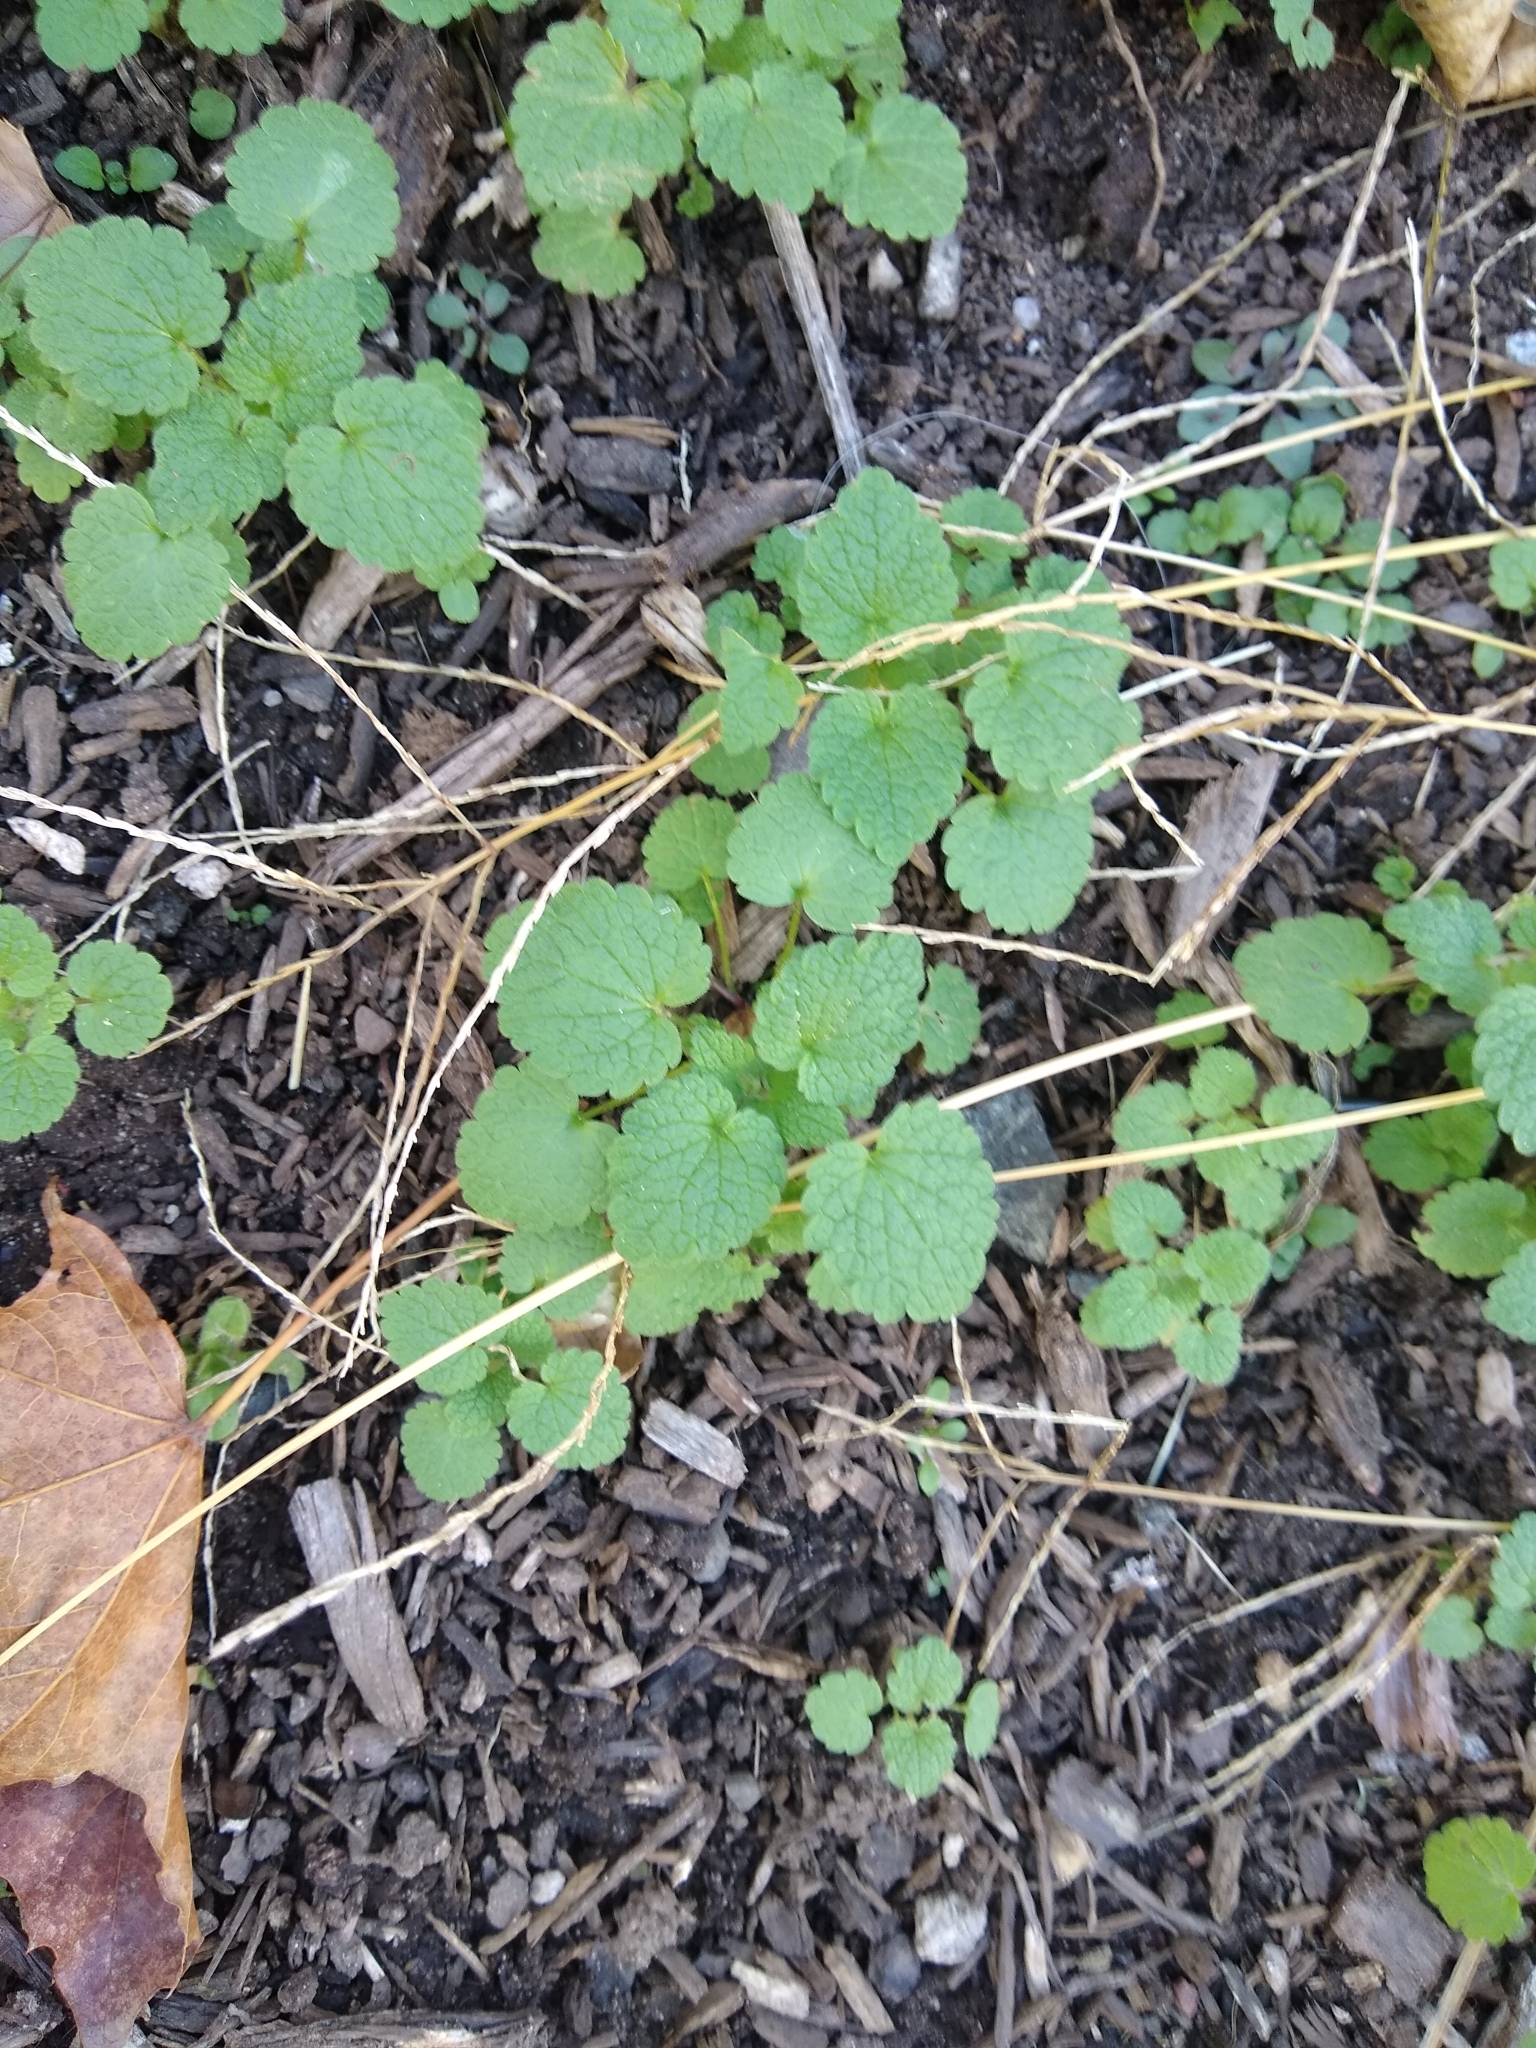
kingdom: Plantae
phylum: Tracheophyta
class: Magnoliopsida
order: Lamiales
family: Lamiaceae
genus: Lamium
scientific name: Lamium purpureum
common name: Red dead-nettle
